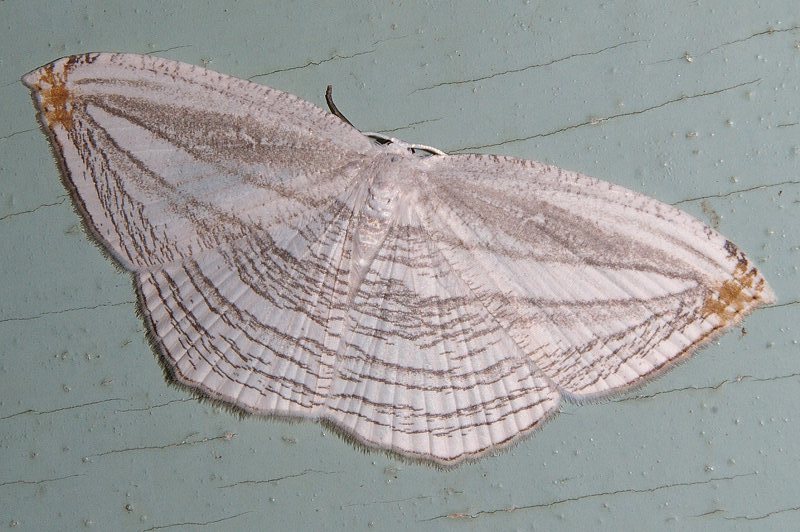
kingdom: Animalia
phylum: Arthropoda
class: Insecta
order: Lepidoptera
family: Uraniidae
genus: Acropteris
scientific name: Acropteris iphiata
